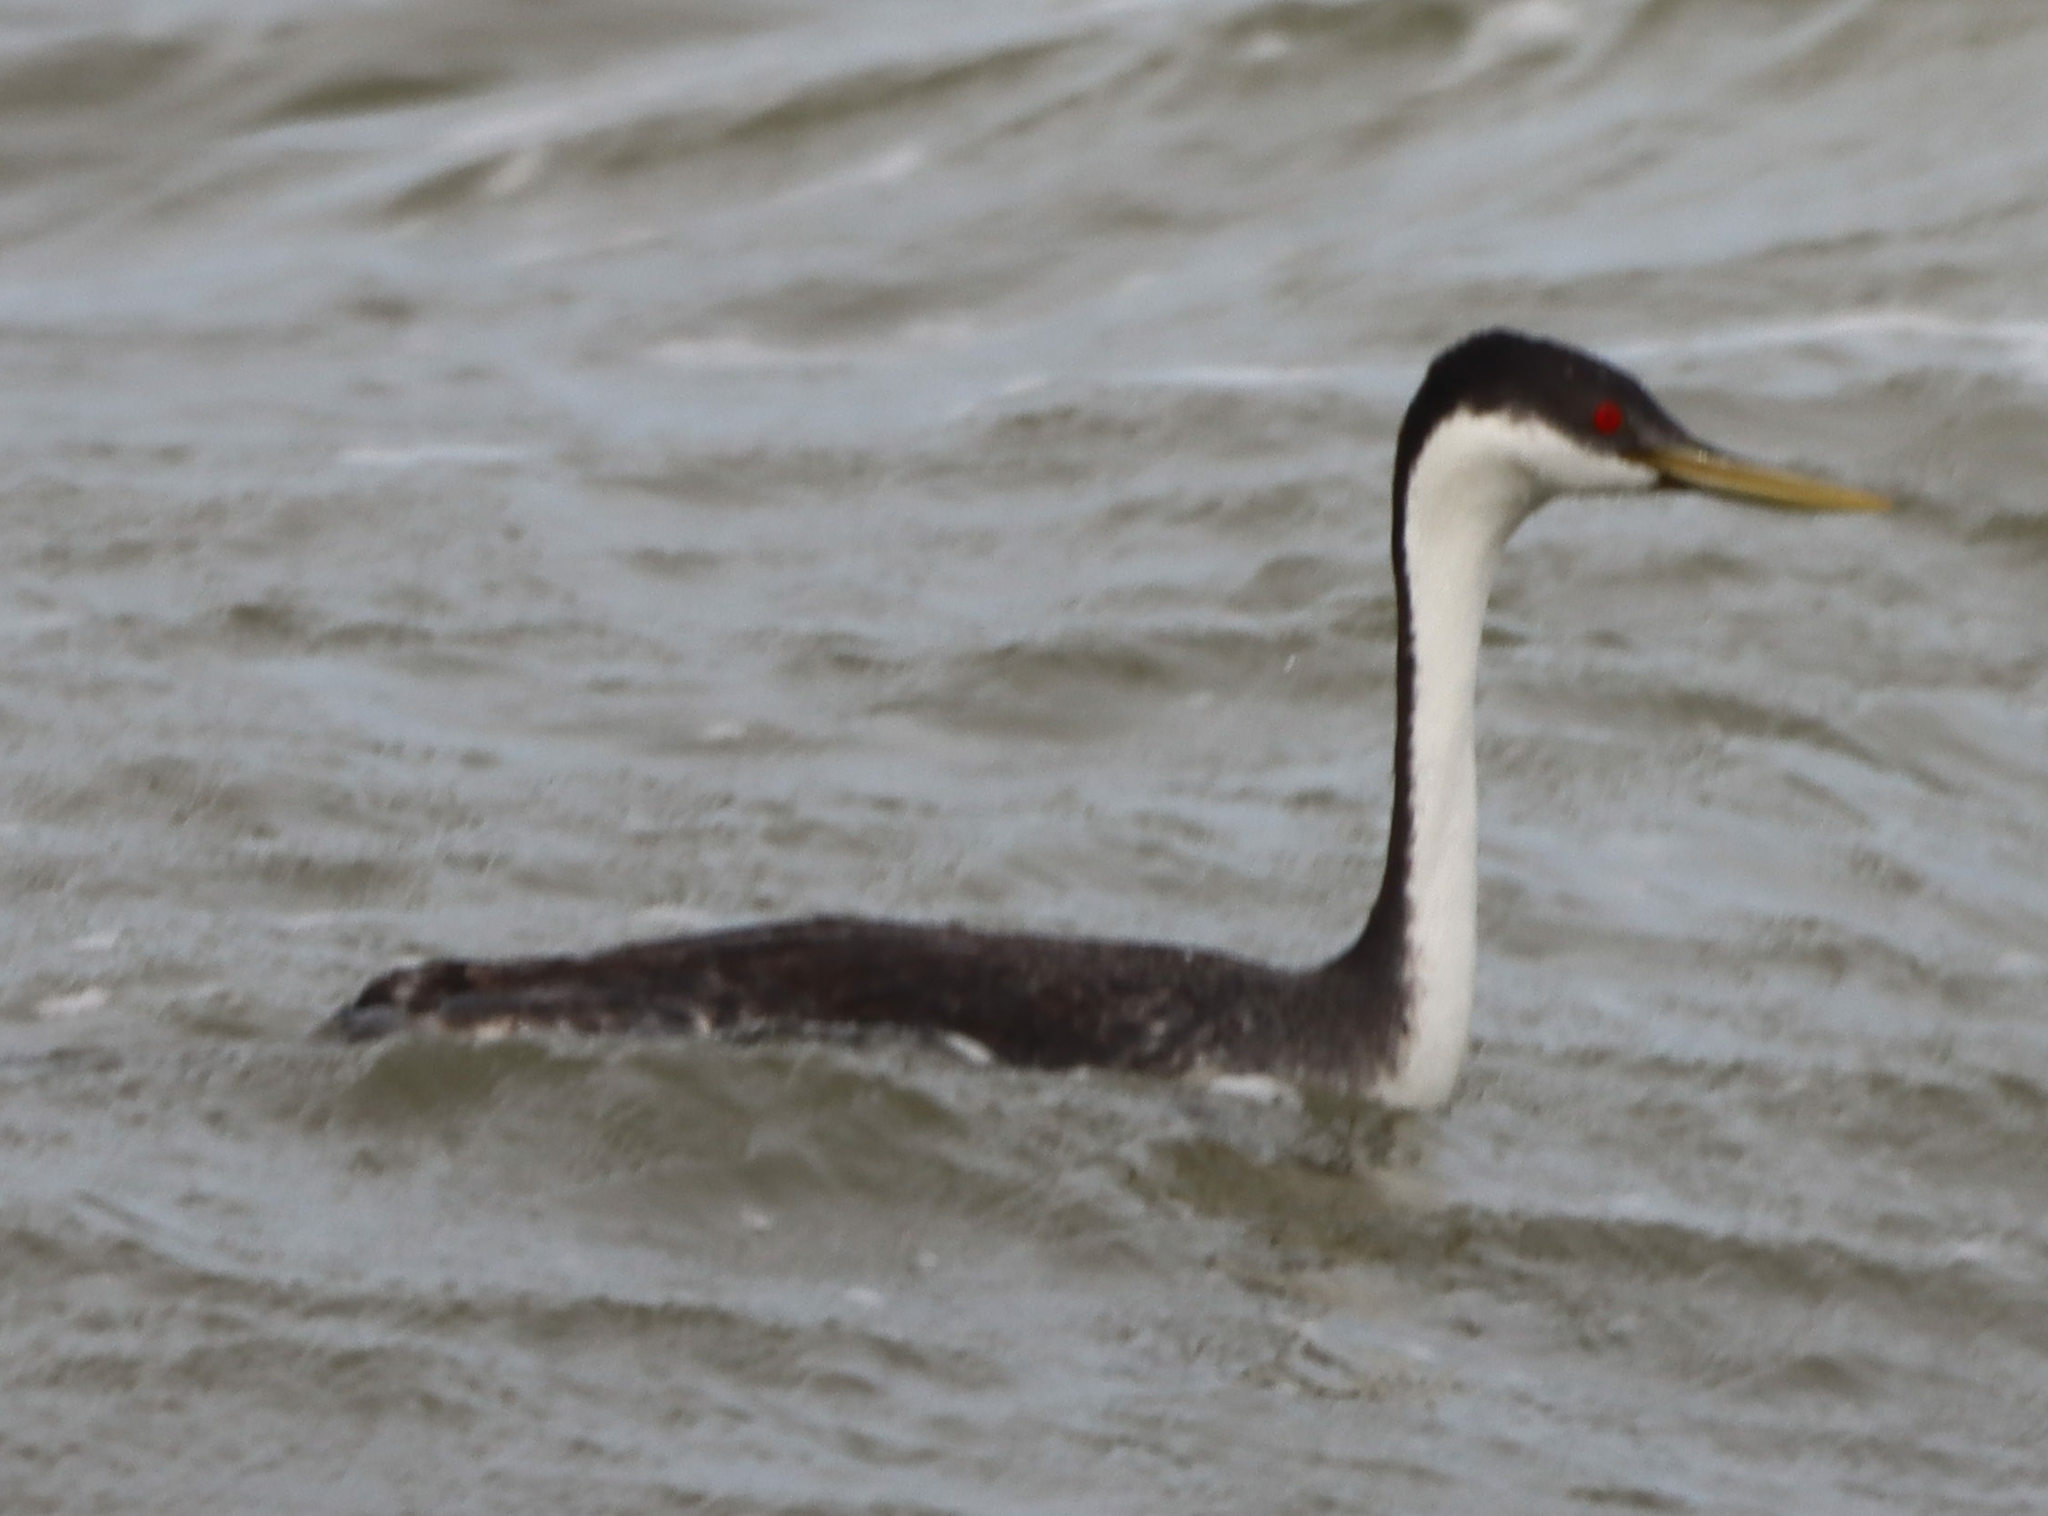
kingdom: Animalia
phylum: Chordata
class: Aves
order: Podicipediformes
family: Podicipedidae
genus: Aechmophorus
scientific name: Aechmophorus occidentalis
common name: Western grebe
